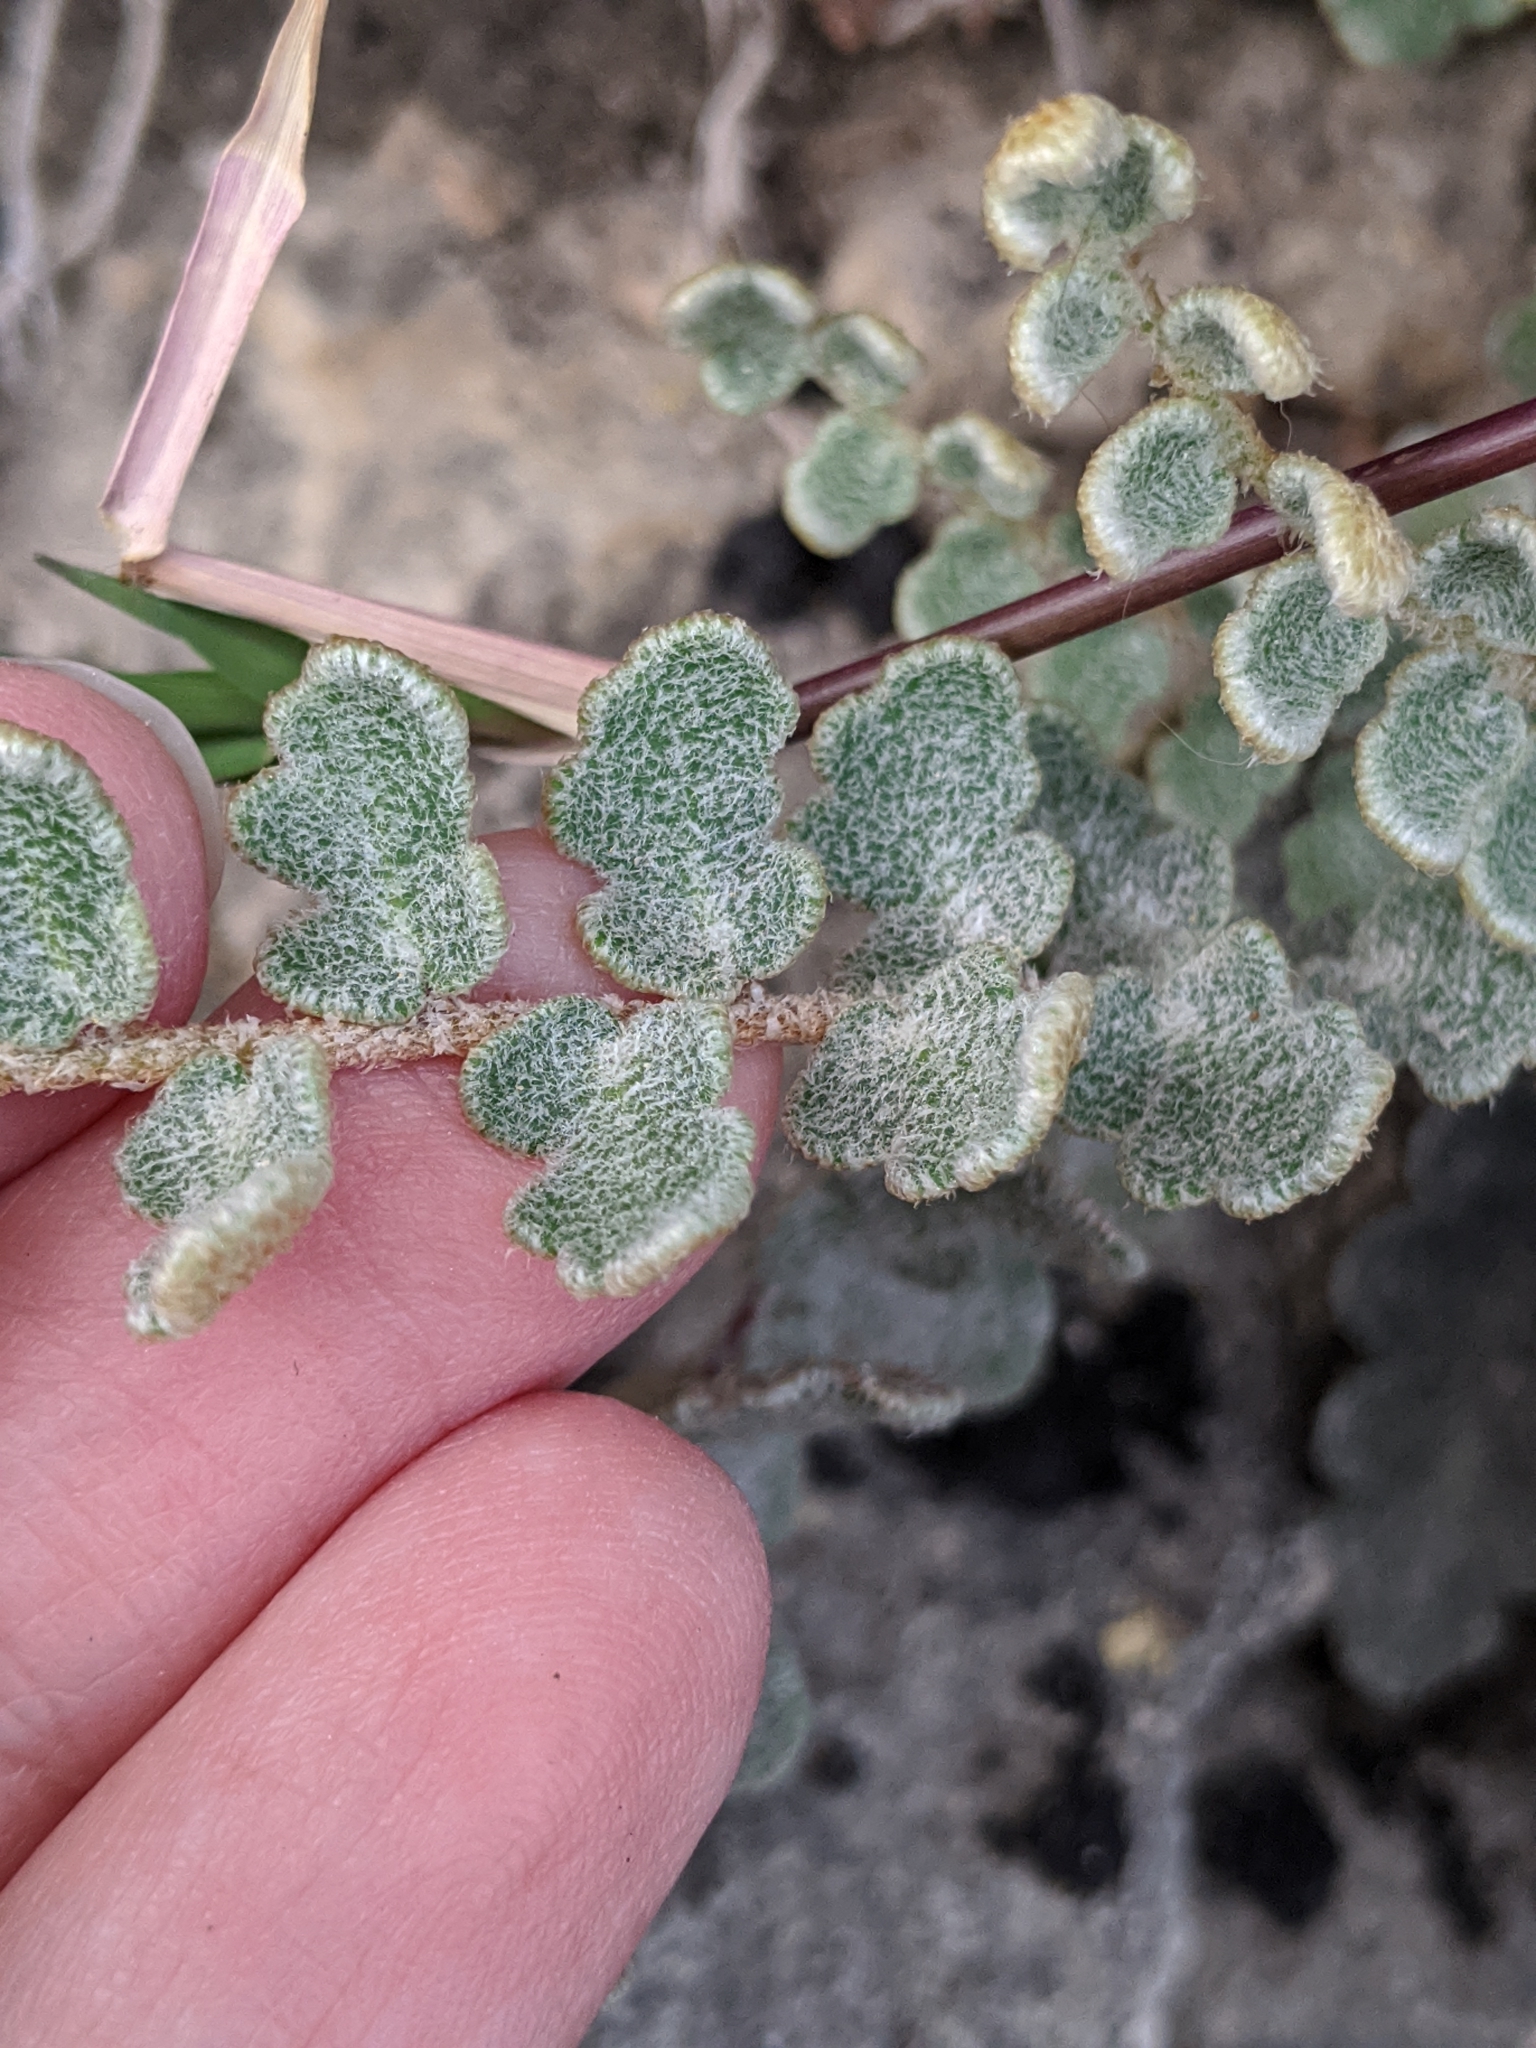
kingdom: Plantae
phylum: Tracheophyta
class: Polypodiopsida
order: Polypodiales
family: Pteridaceae
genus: Astrolepis
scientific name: Astrolepis integerrima
